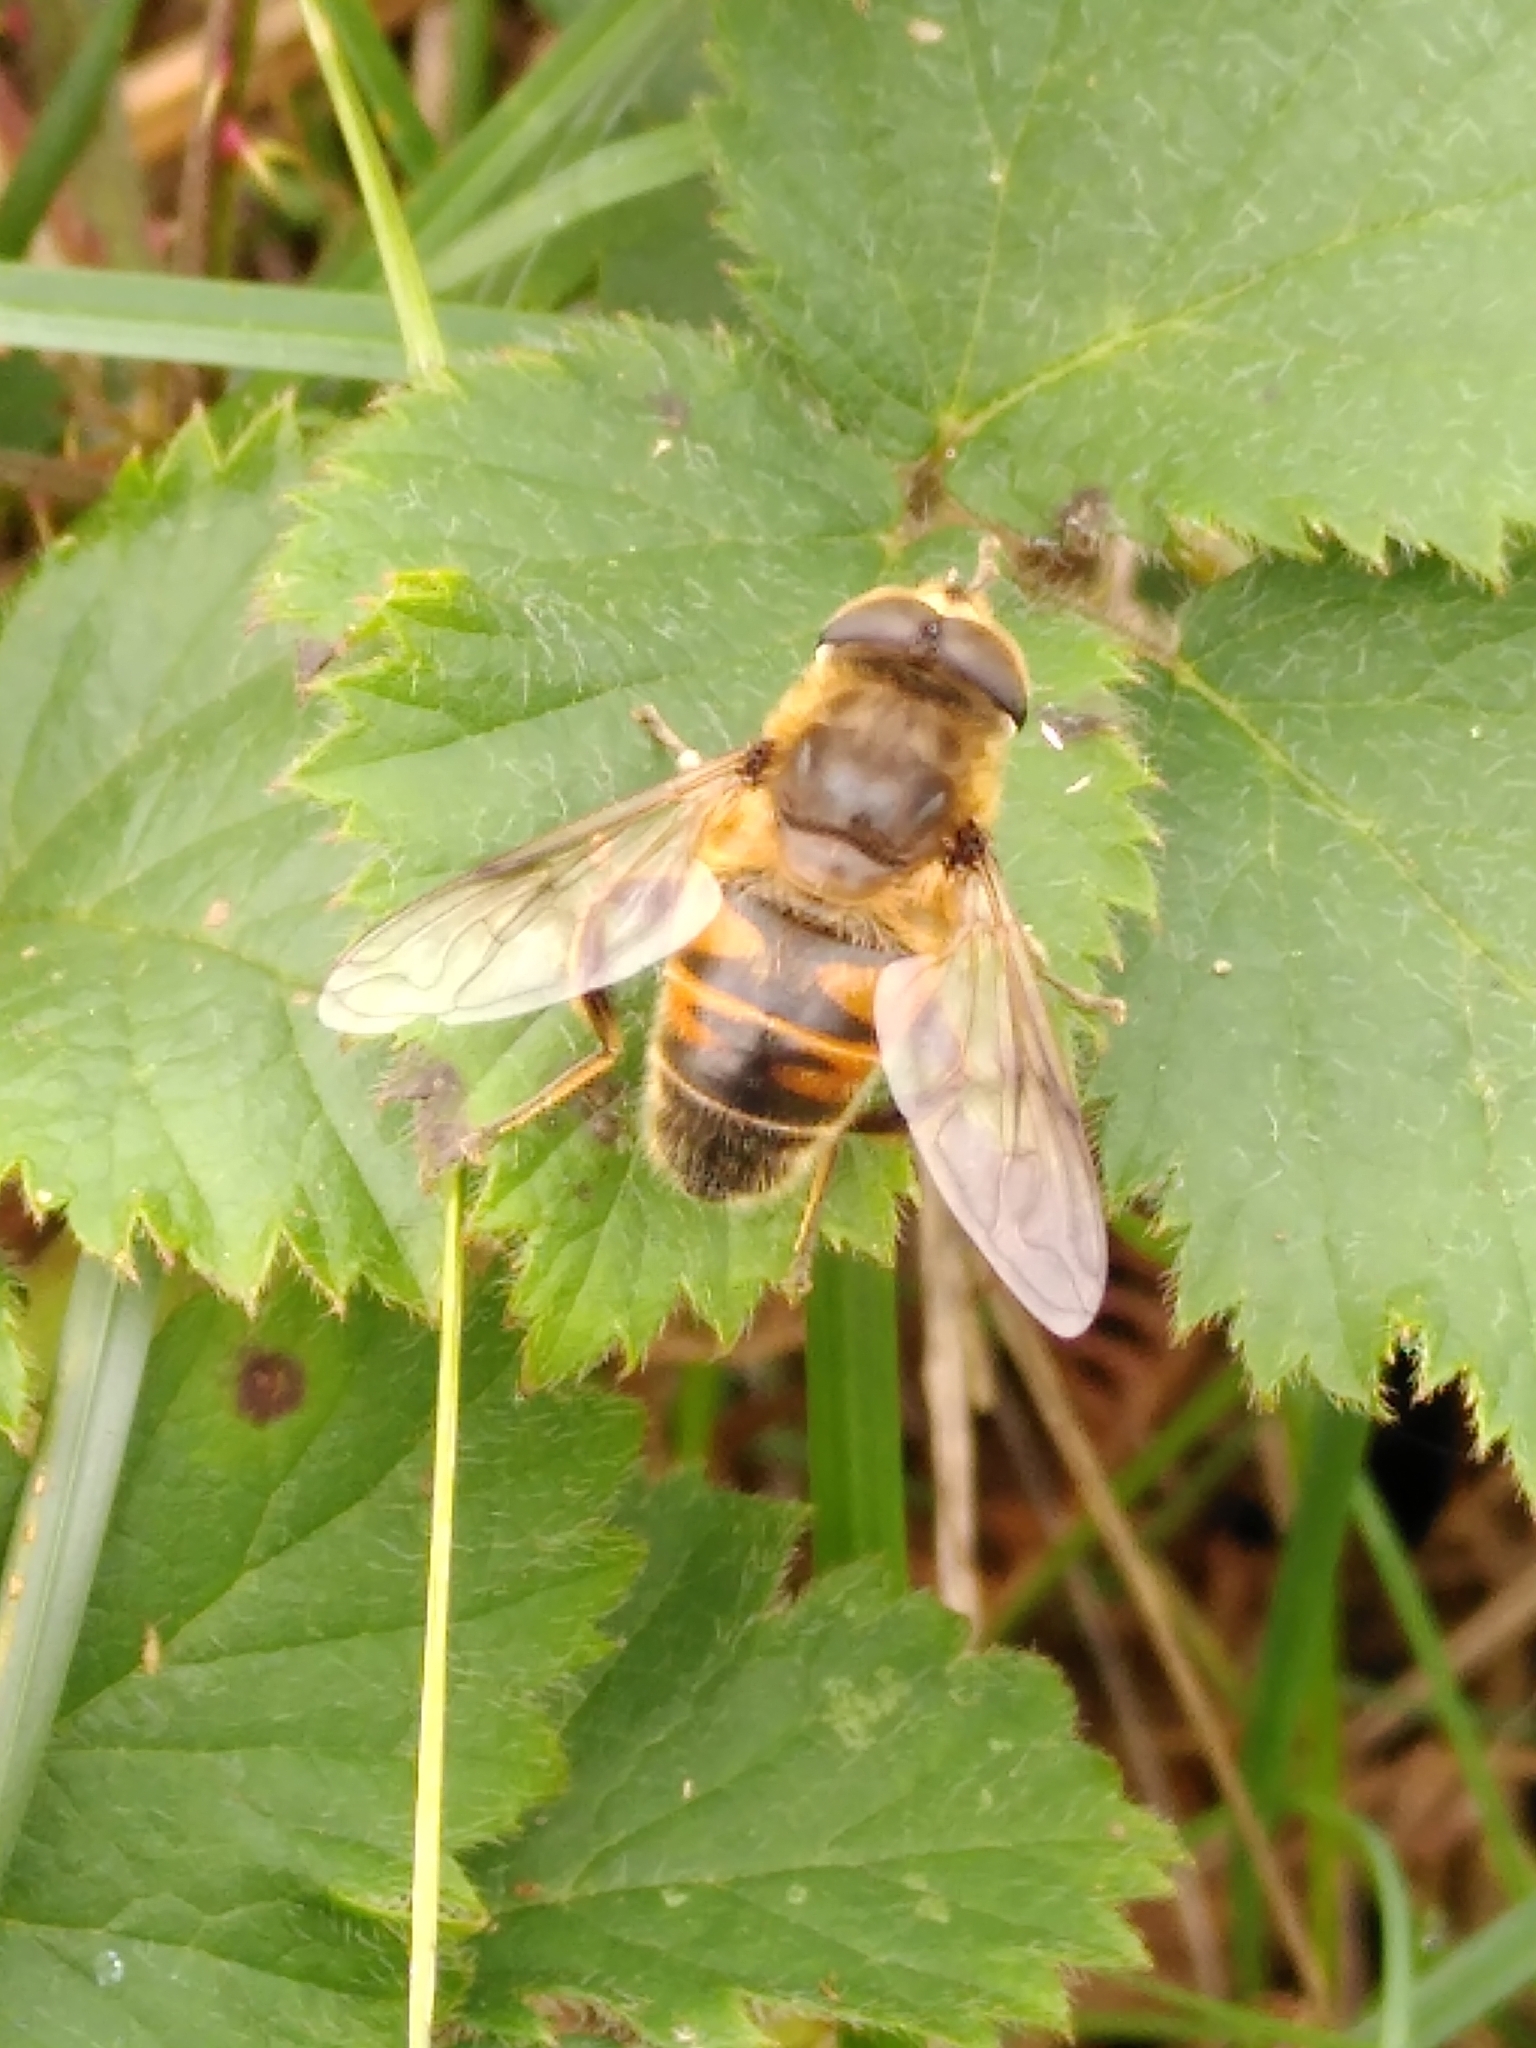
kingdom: Animalia
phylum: Arthropoda
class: Insecta
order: Diptera
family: Syrphidae
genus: Eristalis
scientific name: Eristalis tenax
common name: Drone fly
